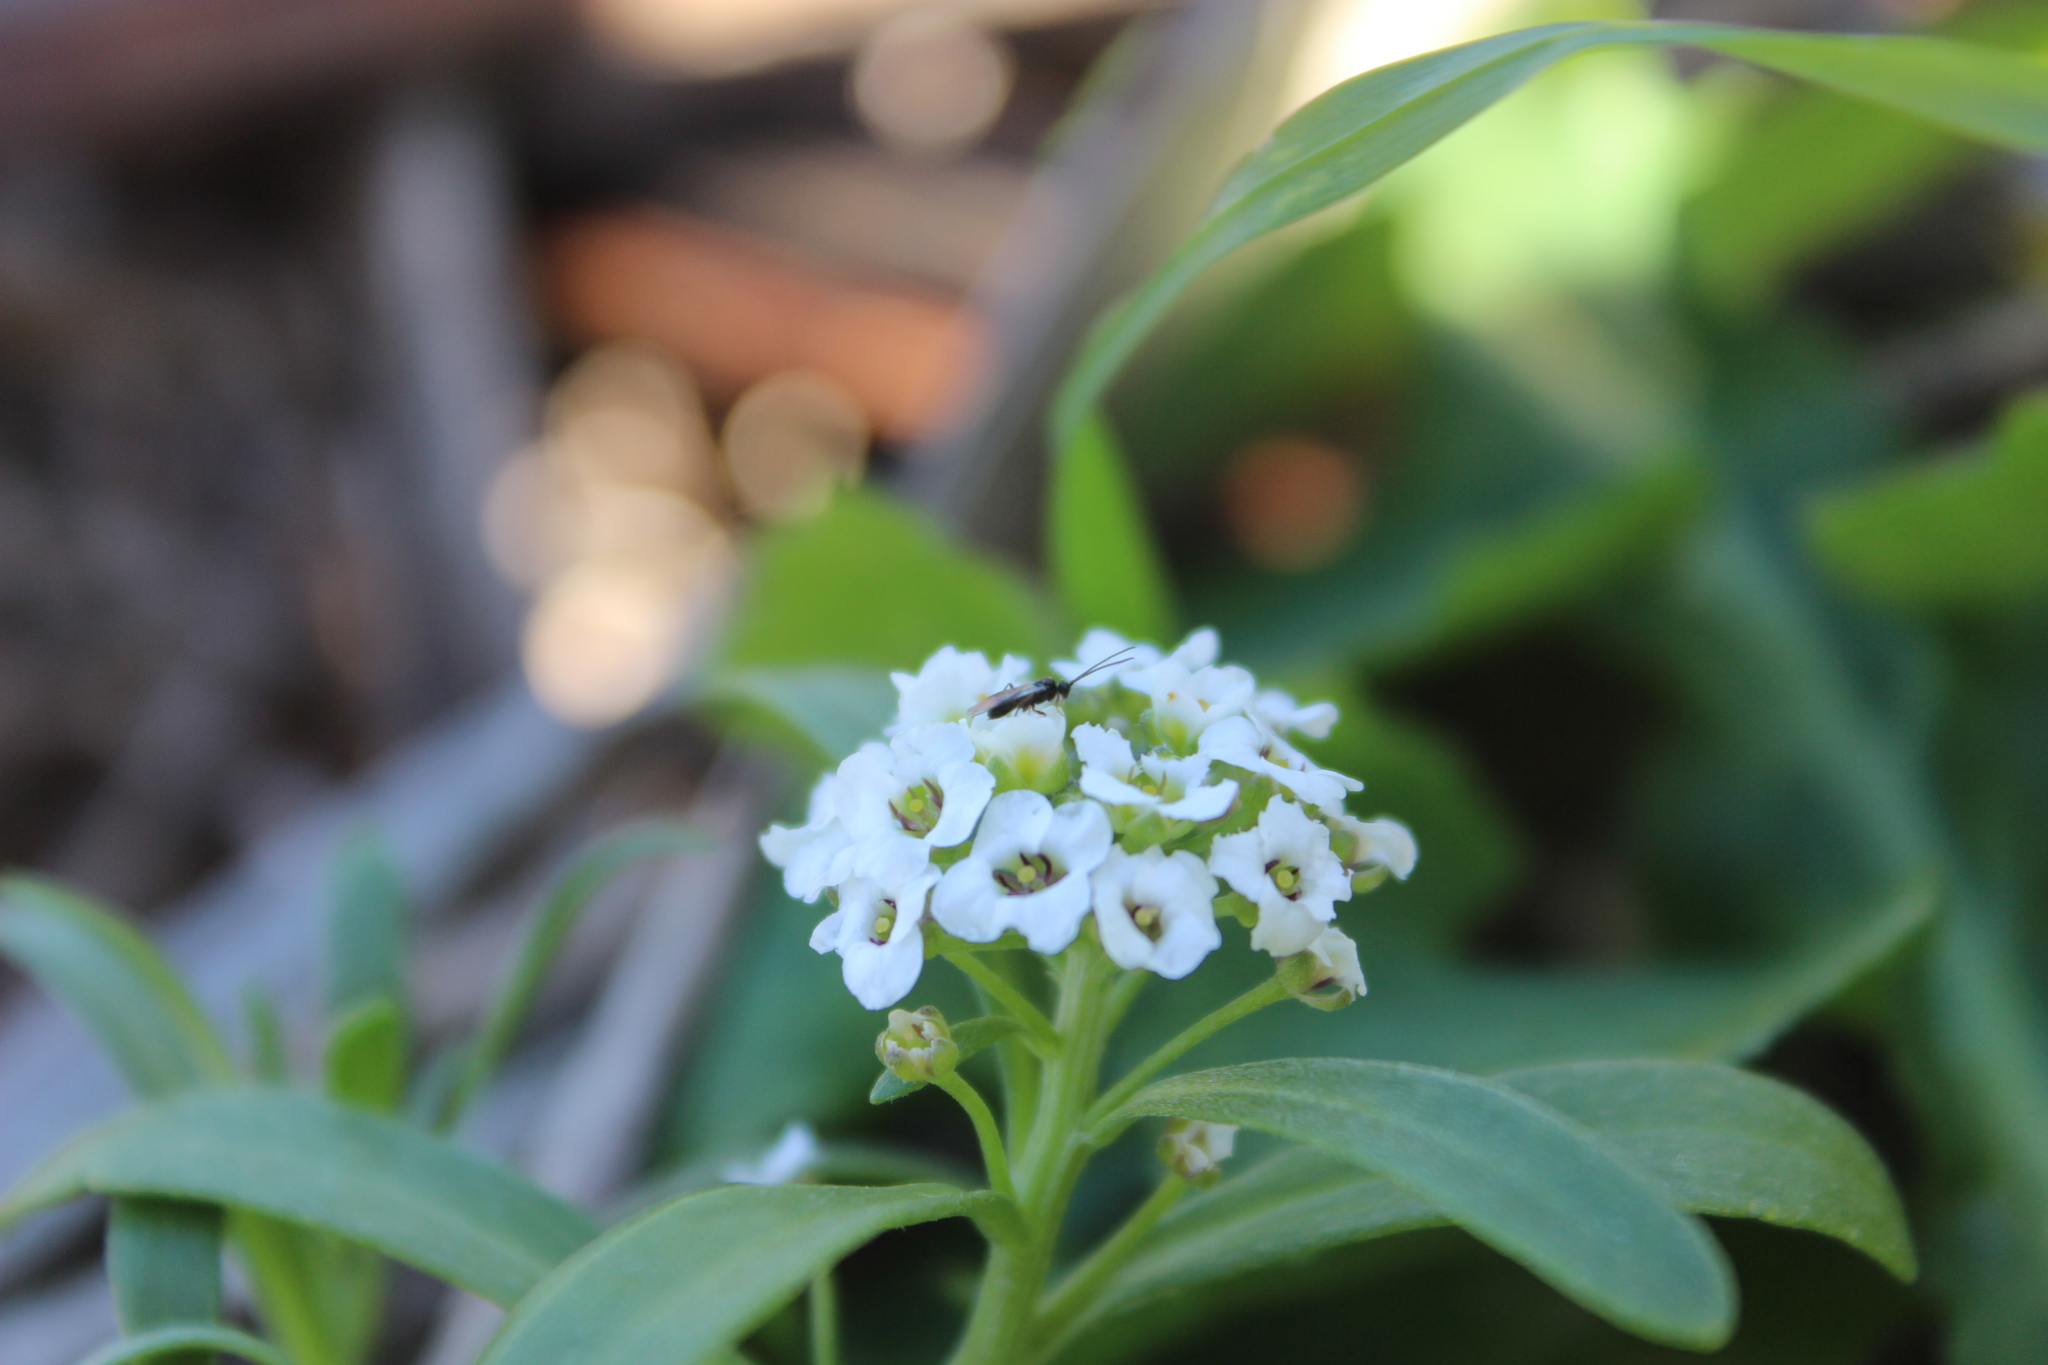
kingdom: Plantae
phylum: Tracheophyta
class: Magnoliopsida
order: Brassicales
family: Brassicaceae
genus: Lobularia
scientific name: Lobularia maritima
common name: Sweet alison
